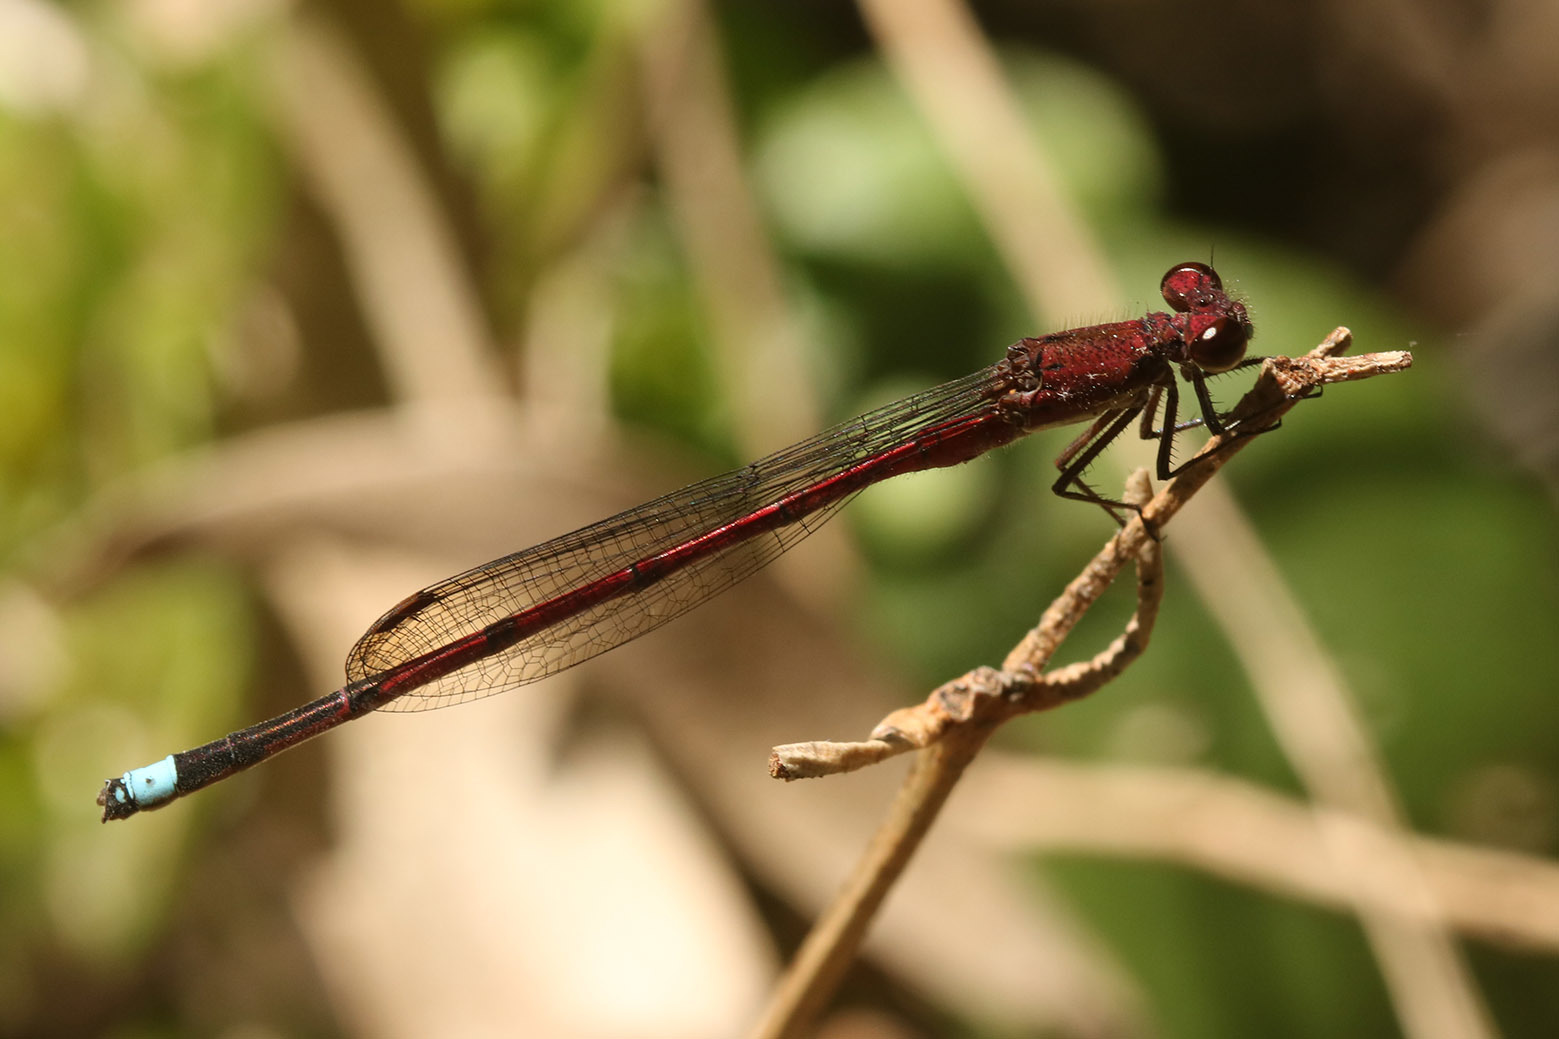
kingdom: Animalia
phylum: Arthropoda
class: Insecta
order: Odonata
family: Coenagrionidae
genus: Oxyagrion
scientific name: Oxyagrion terminale
